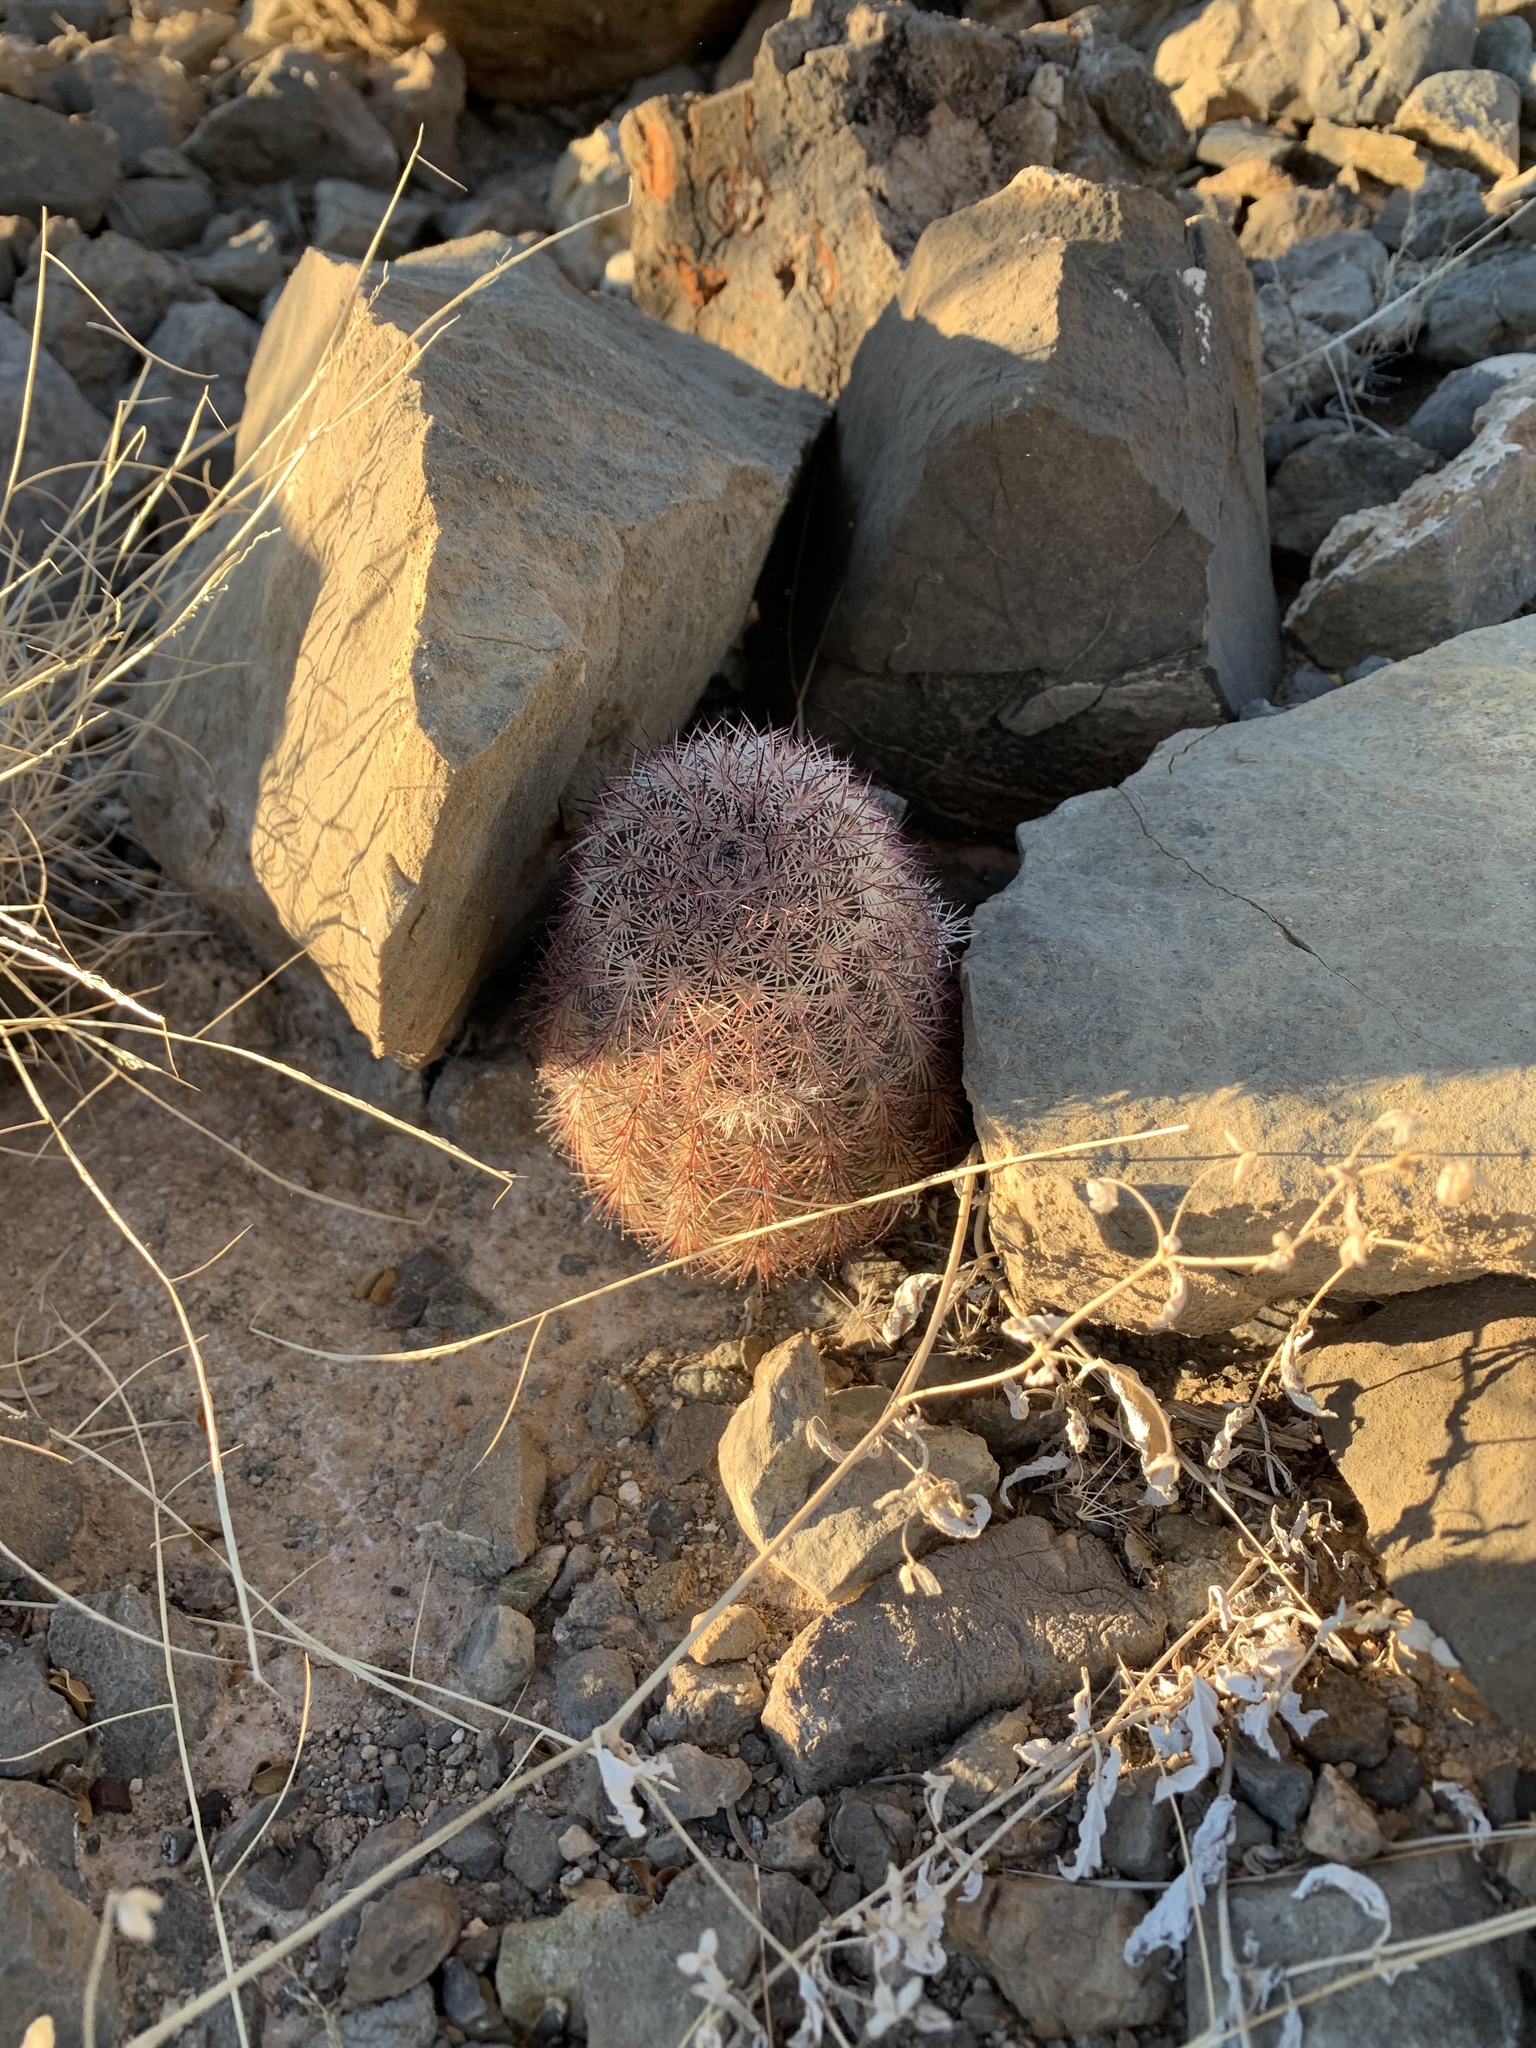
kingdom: Plantae
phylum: Tracheophyta
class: Magnoliopsida
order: Caryophyllales
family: Cactaceae
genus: Echinocereus
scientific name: Echinocereus dasyacanthus
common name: Spiny hedgehog cactus
